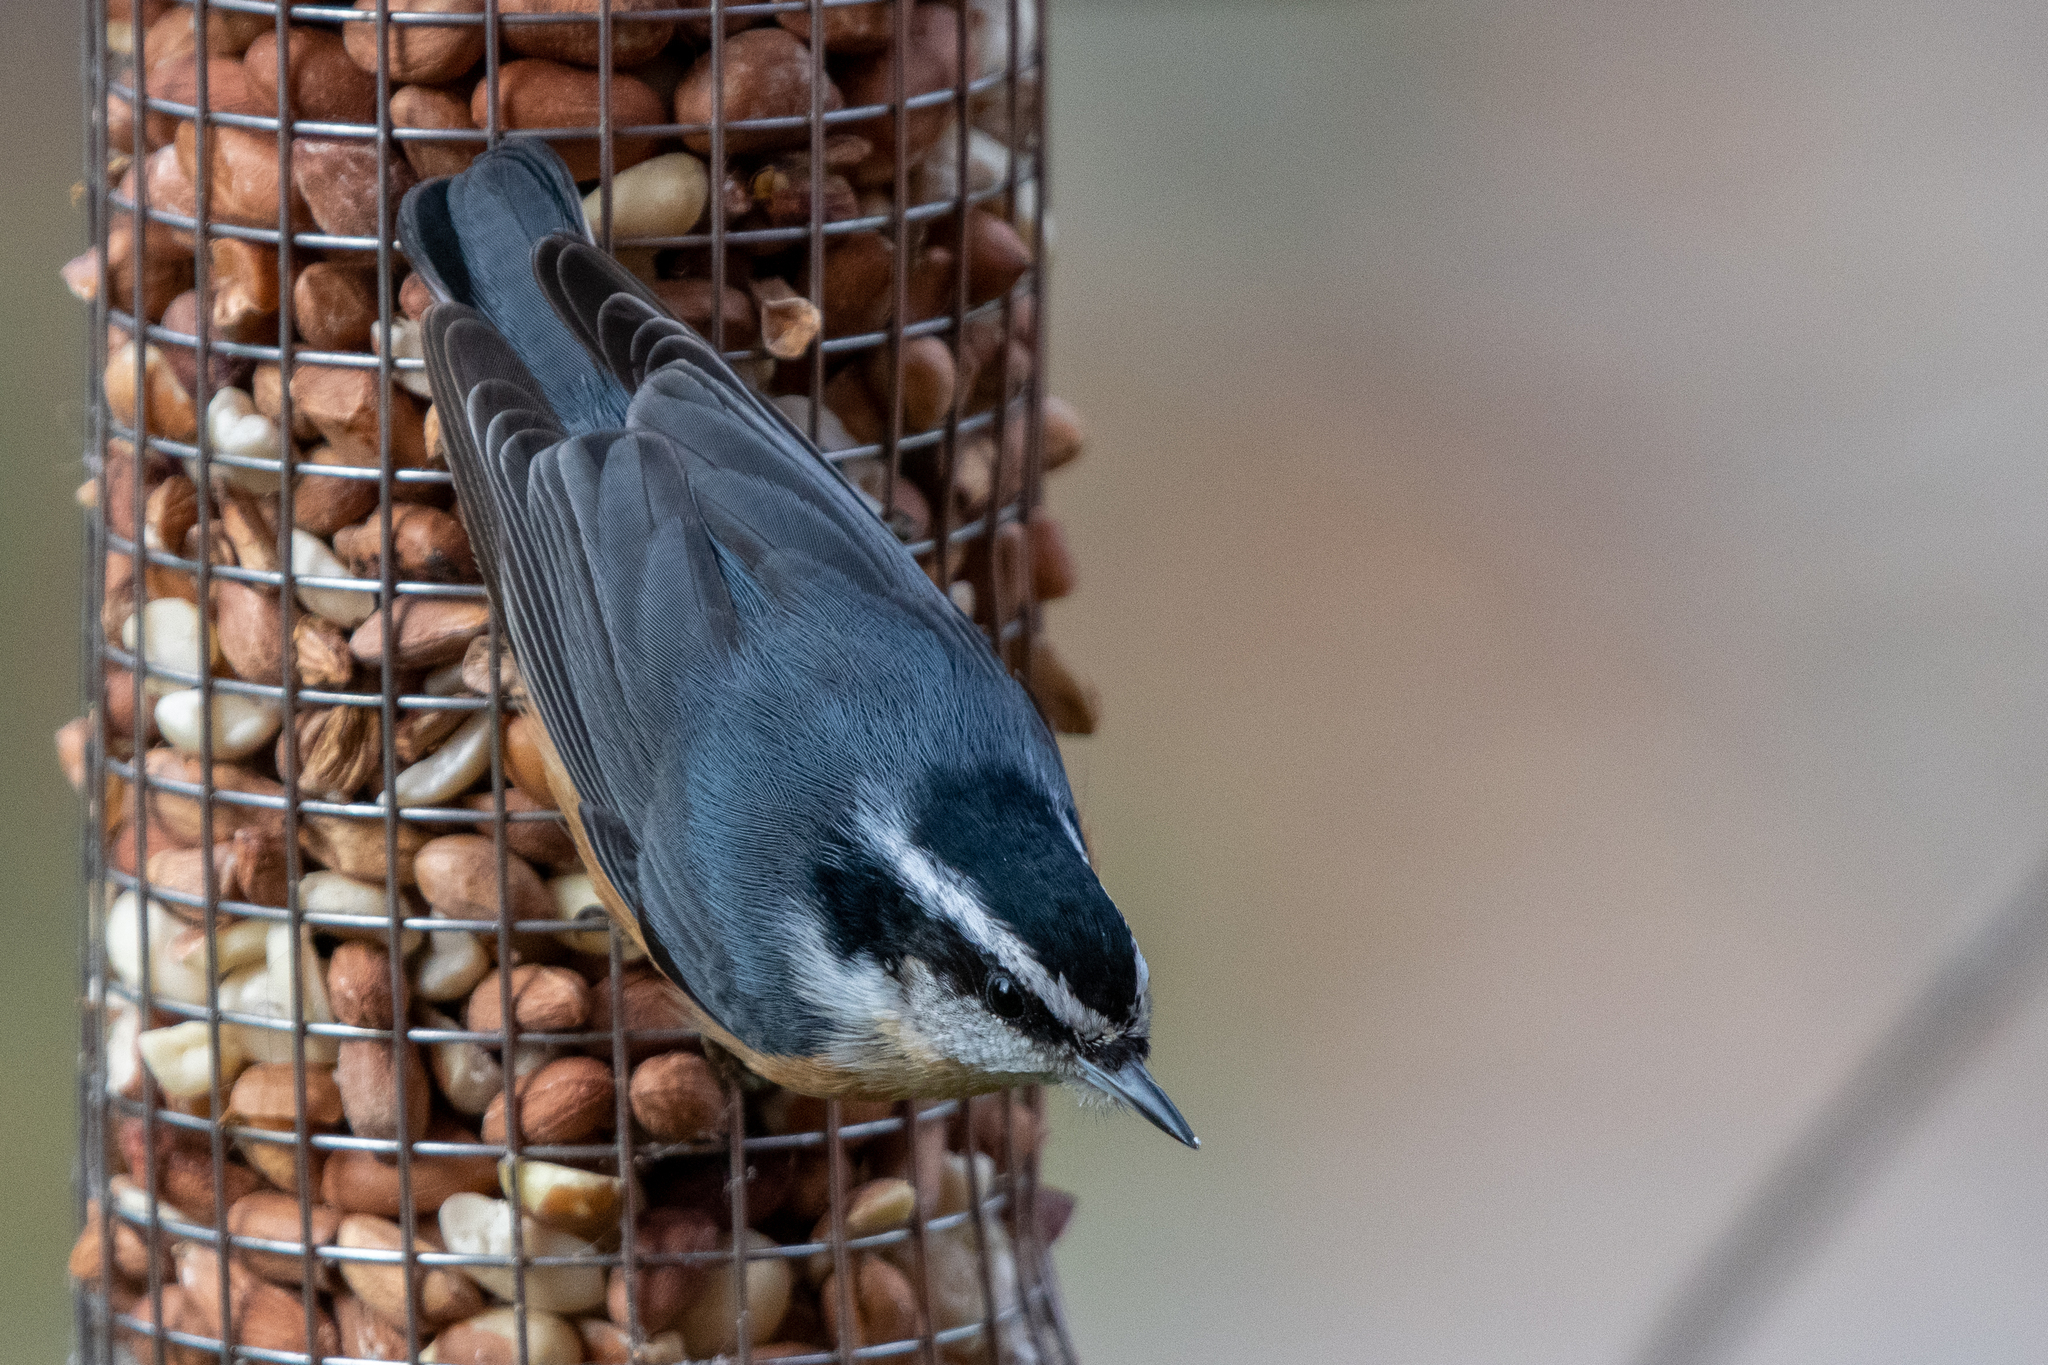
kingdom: Animalia
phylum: Chordata
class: Aves
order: Passeriformes
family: Sittidae
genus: Sitta
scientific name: Sitta canadensis
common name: Red-breasted nuthatch
